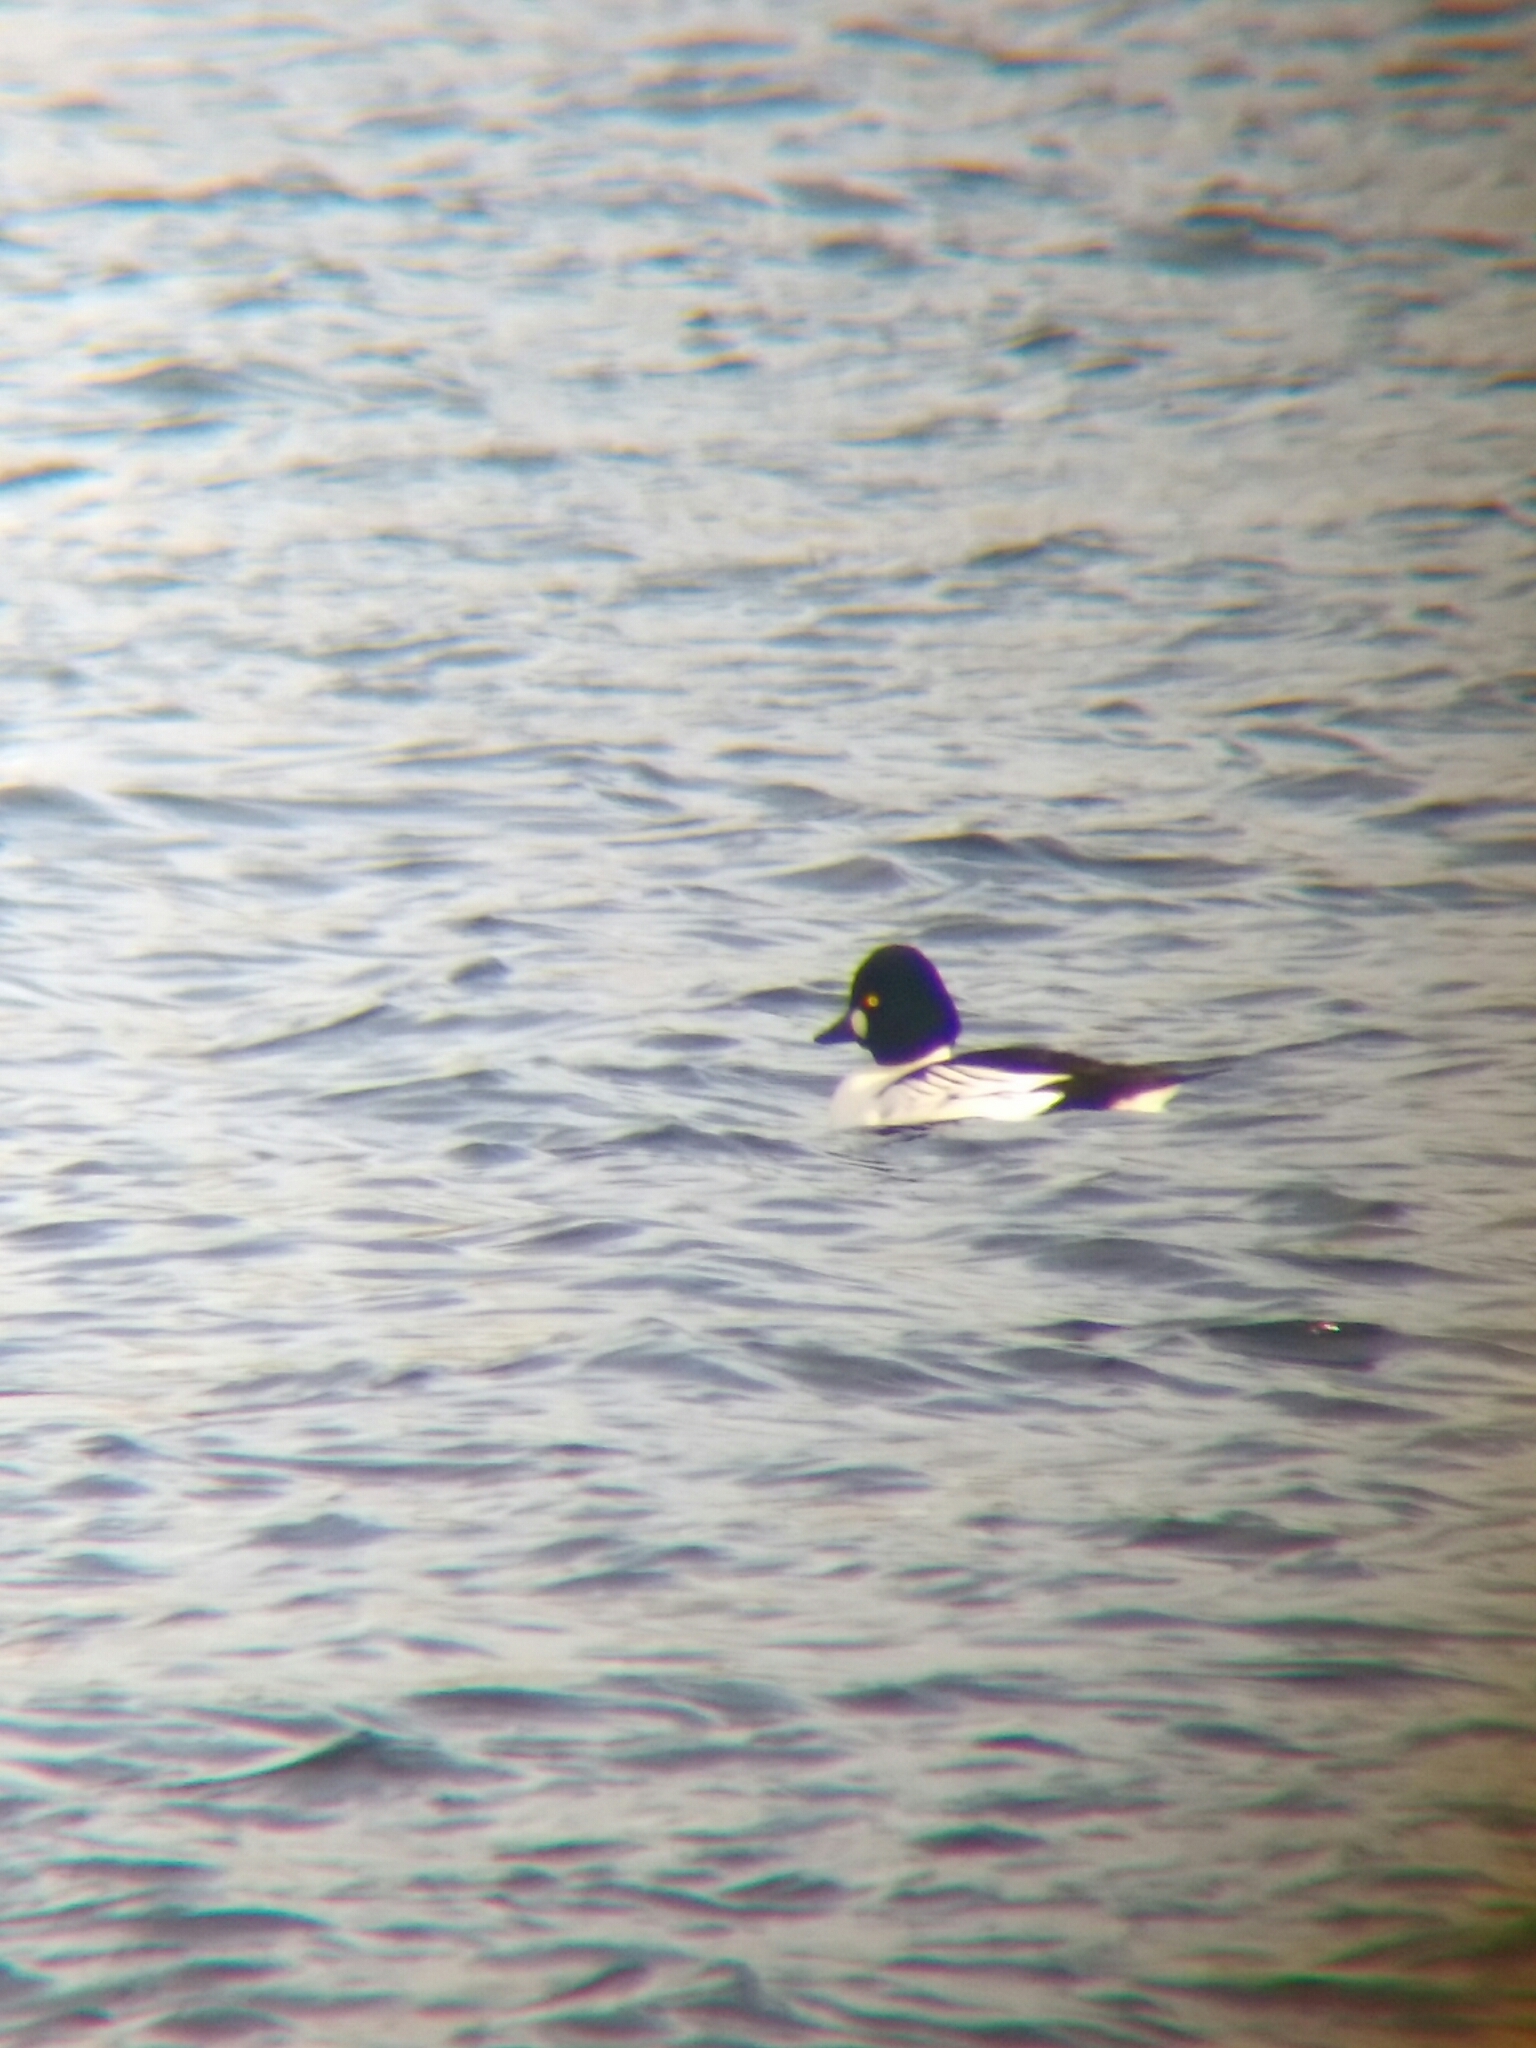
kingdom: Animalia
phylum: Chordata
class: Aves
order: Anseriformes
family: Anatidae
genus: Bucephala
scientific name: Bucephala clangula
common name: Common goldeneye
